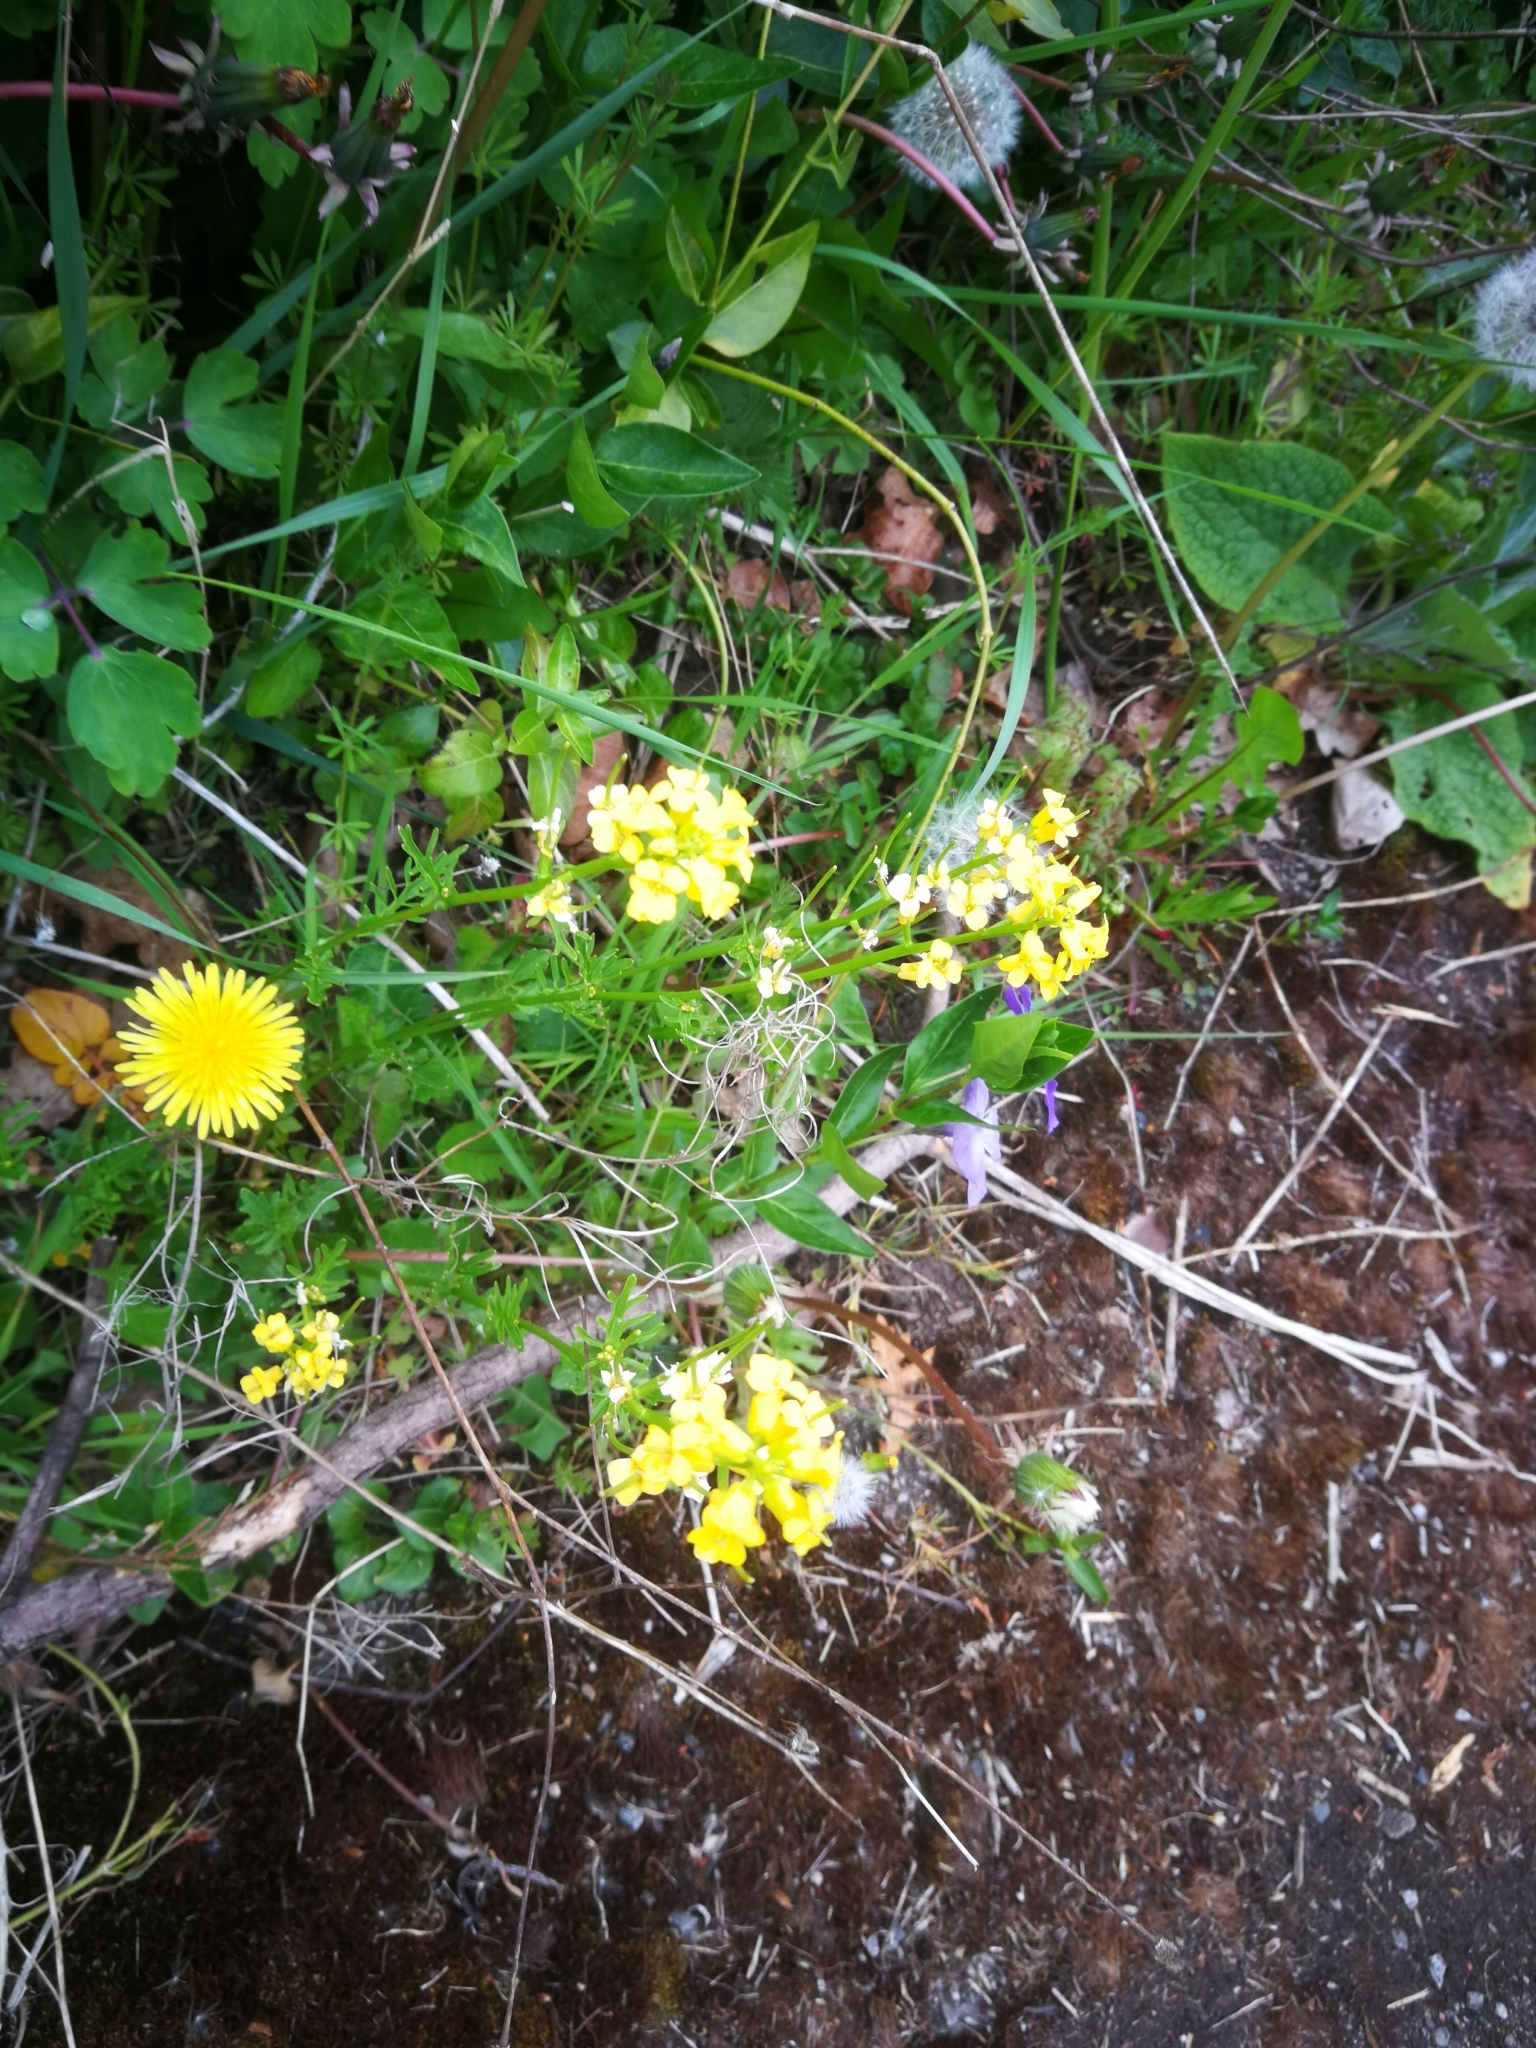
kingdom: Plantae
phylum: Tracheophyta
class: Magnoliopsida
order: Asterales
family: Asteraceae
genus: Taraxacum
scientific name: Taraxacum officinale
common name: Common dandelion
